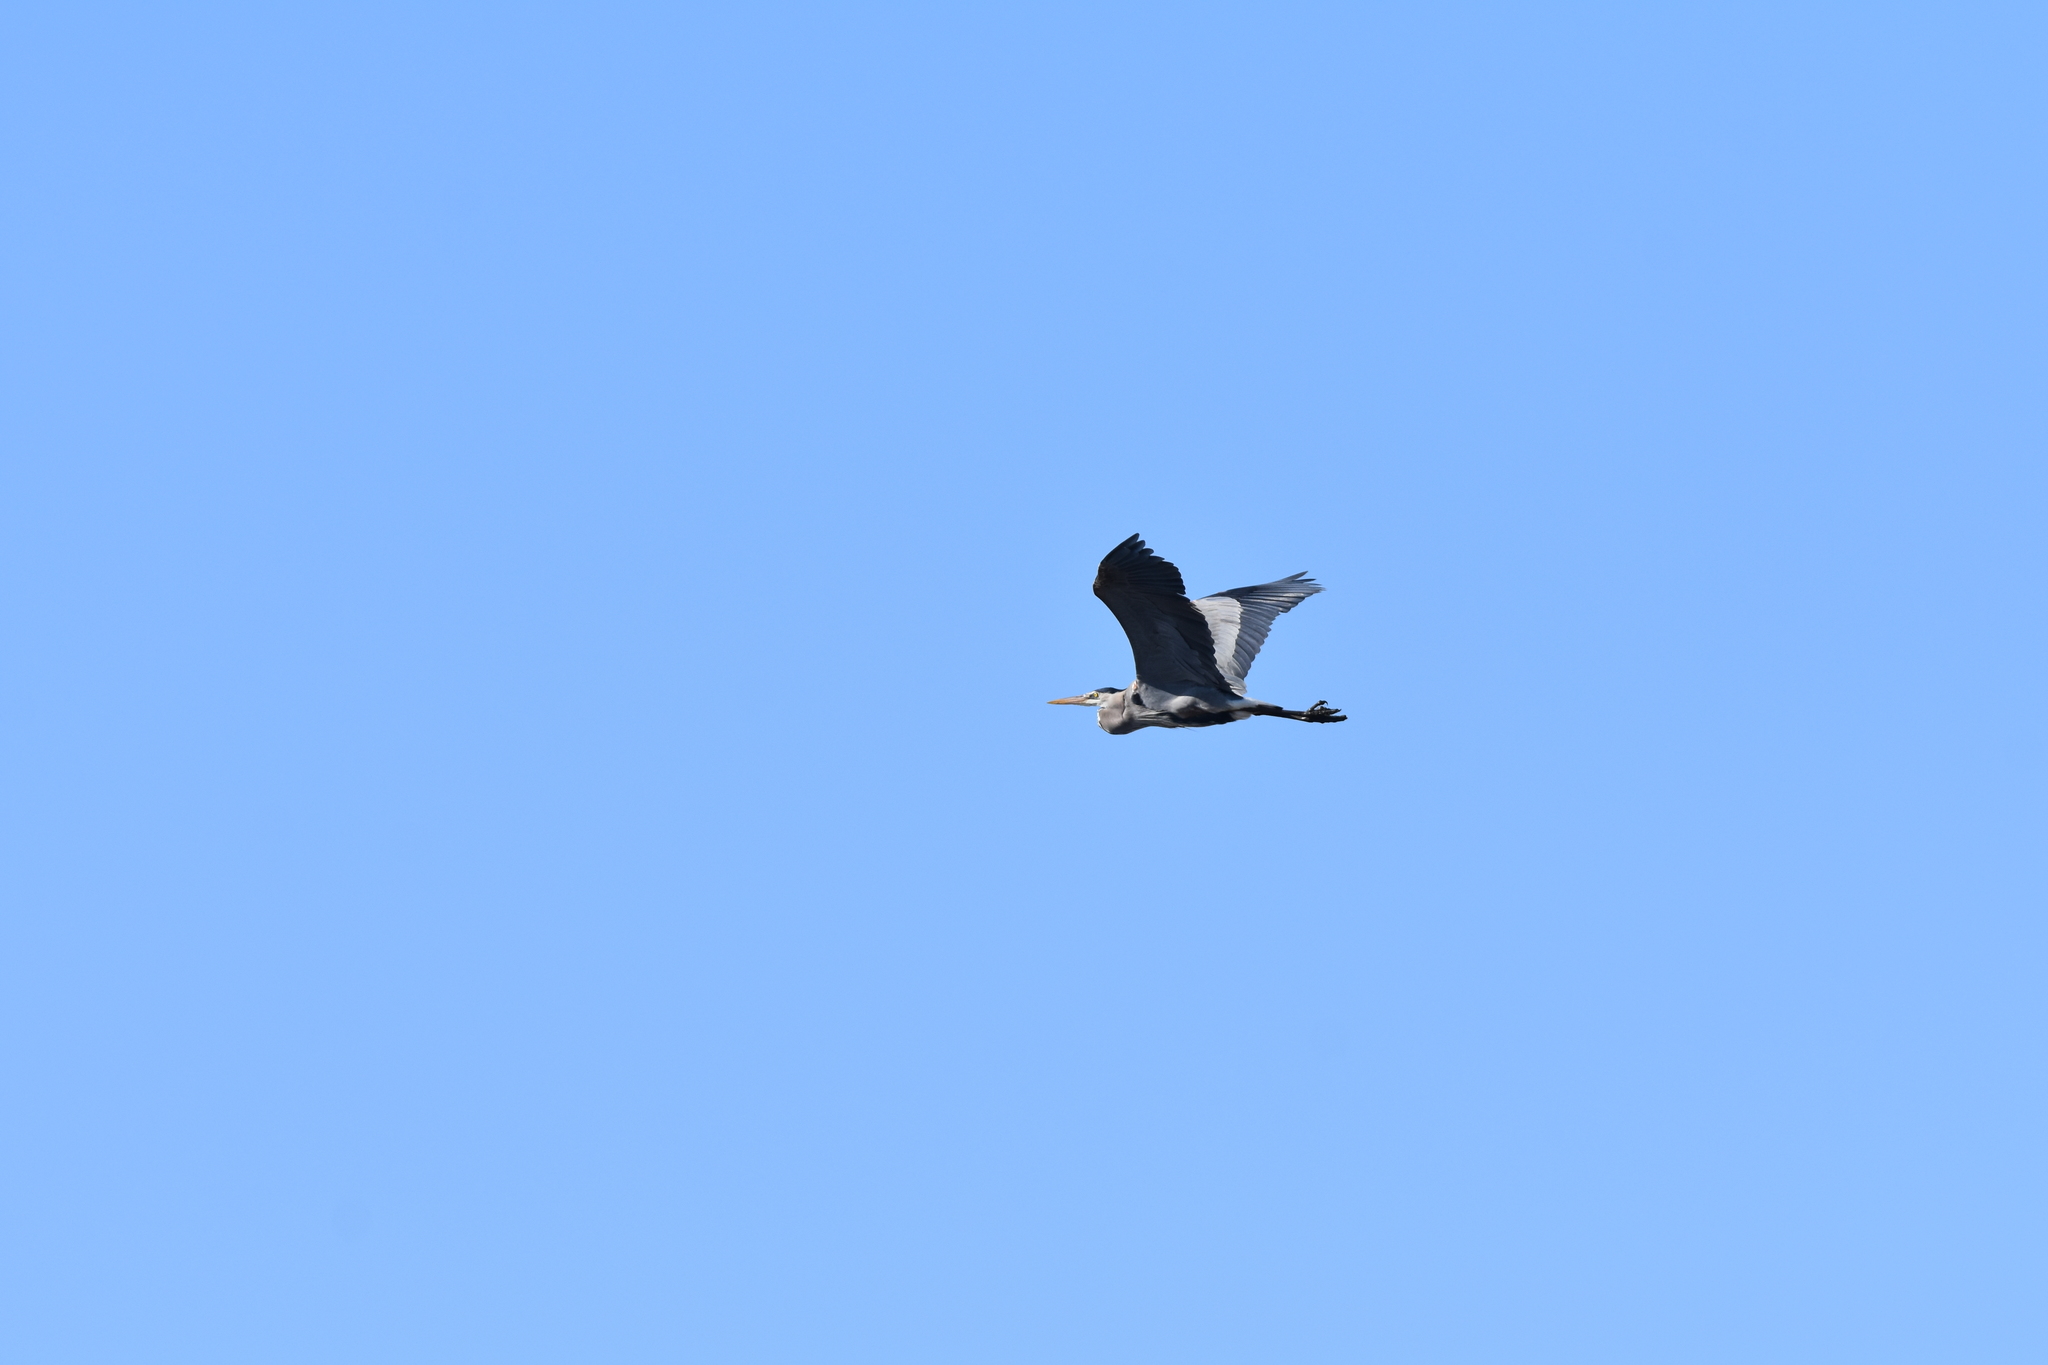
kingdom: Animalia
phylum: Chordata
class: Aves
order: Pelecaniformes
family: Ardeidae
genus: Ardea
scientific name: Ardea herodias
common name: Great blue heron
